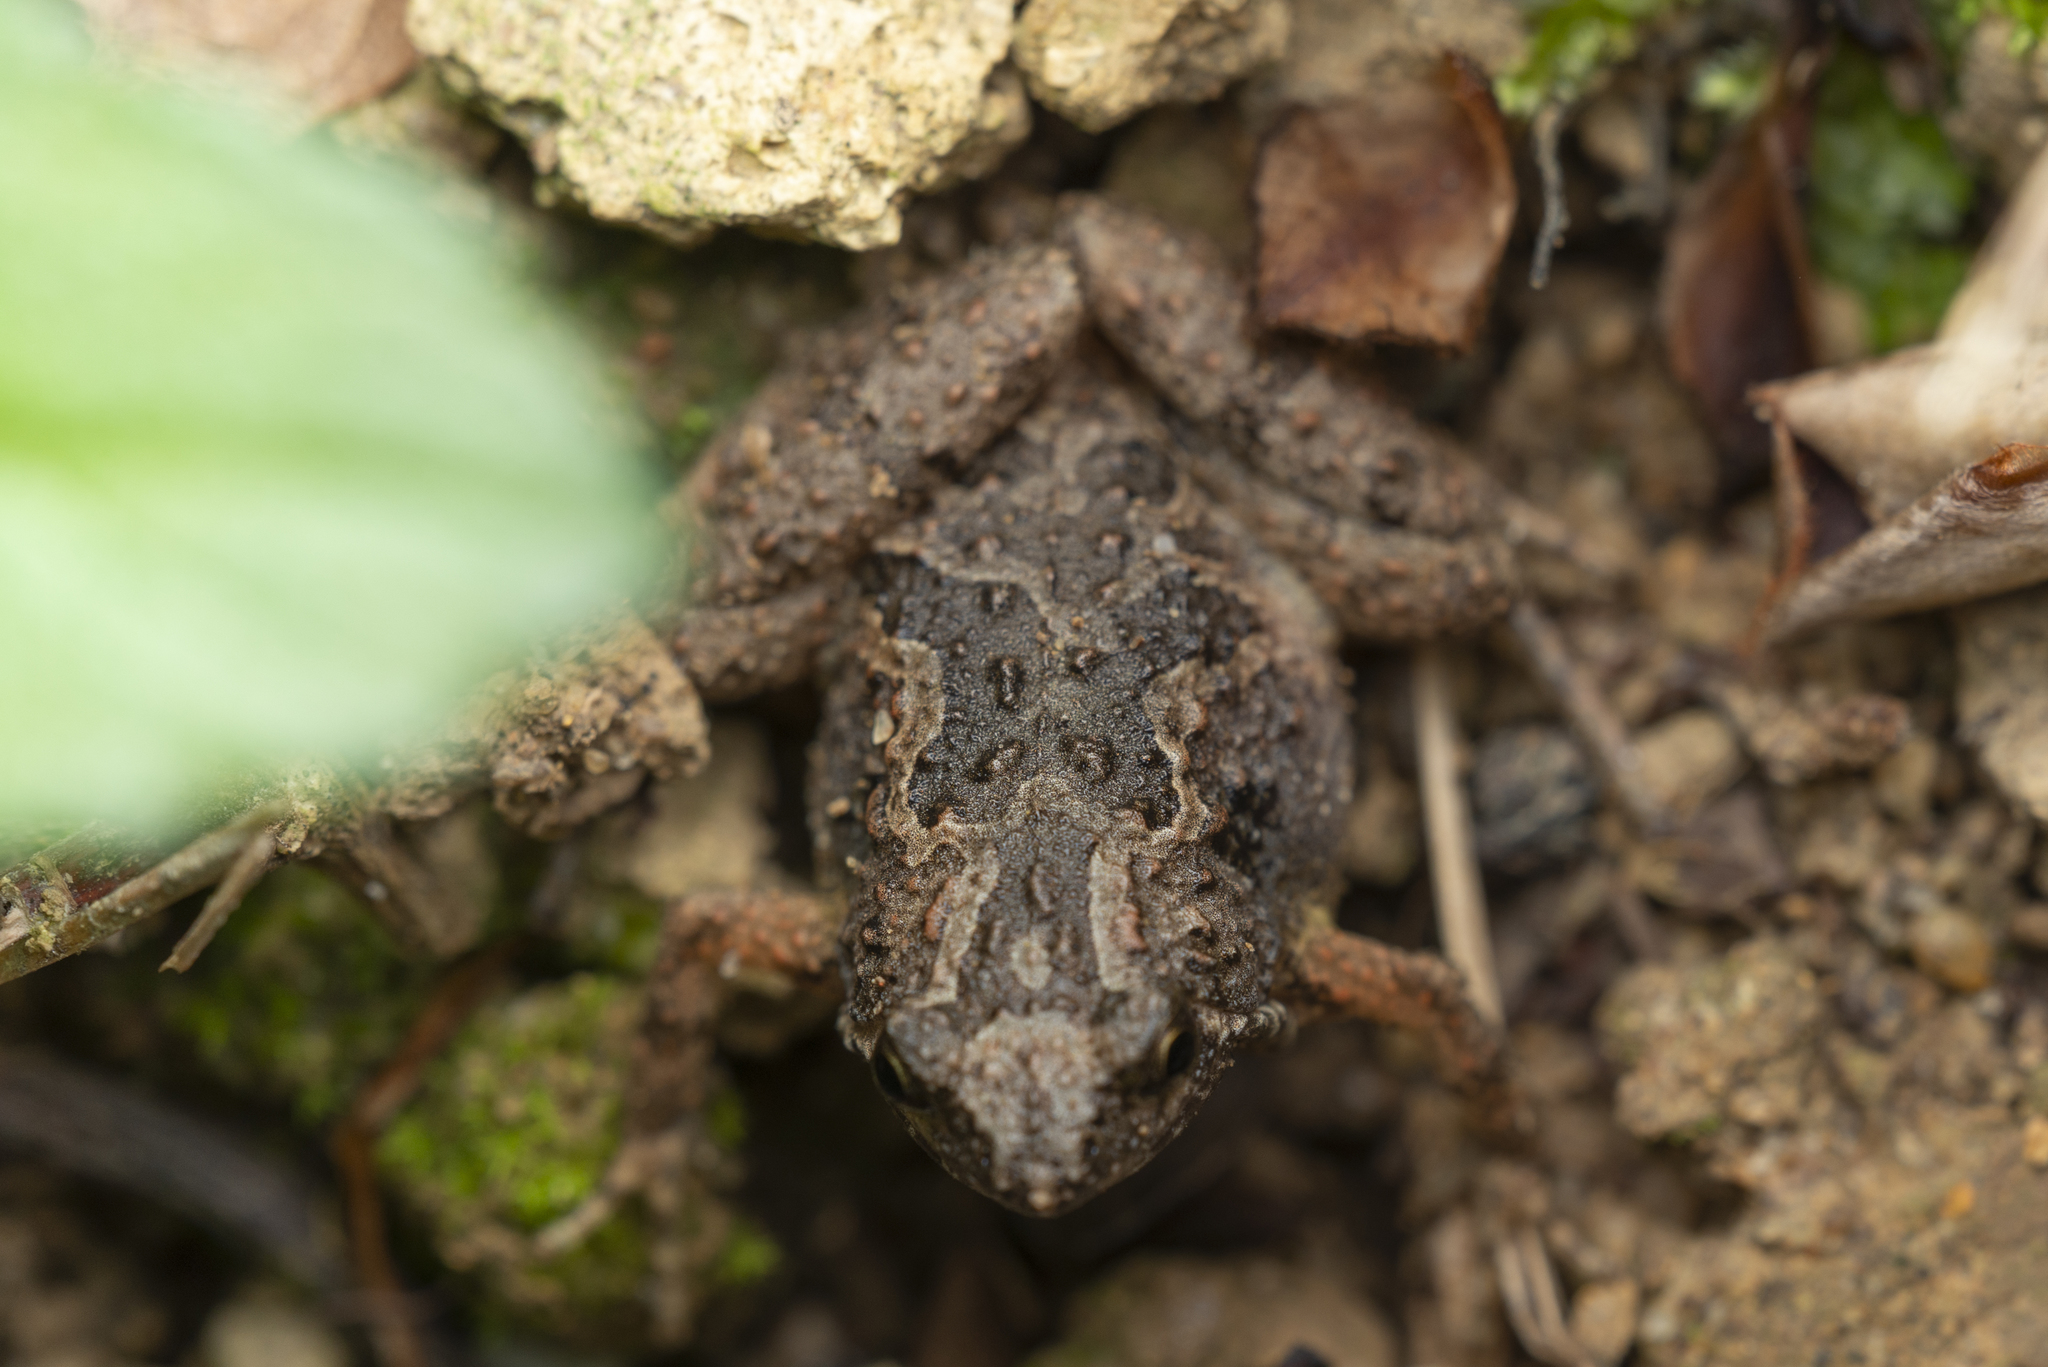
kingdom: Animalia
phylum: Chordata
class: Amphibia
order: Anura
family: Microhylidae
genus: Microhyla
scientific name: Microhyla butleri
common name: Butler’s rice frog,painted chorus frog,tubercled pygmy frog
